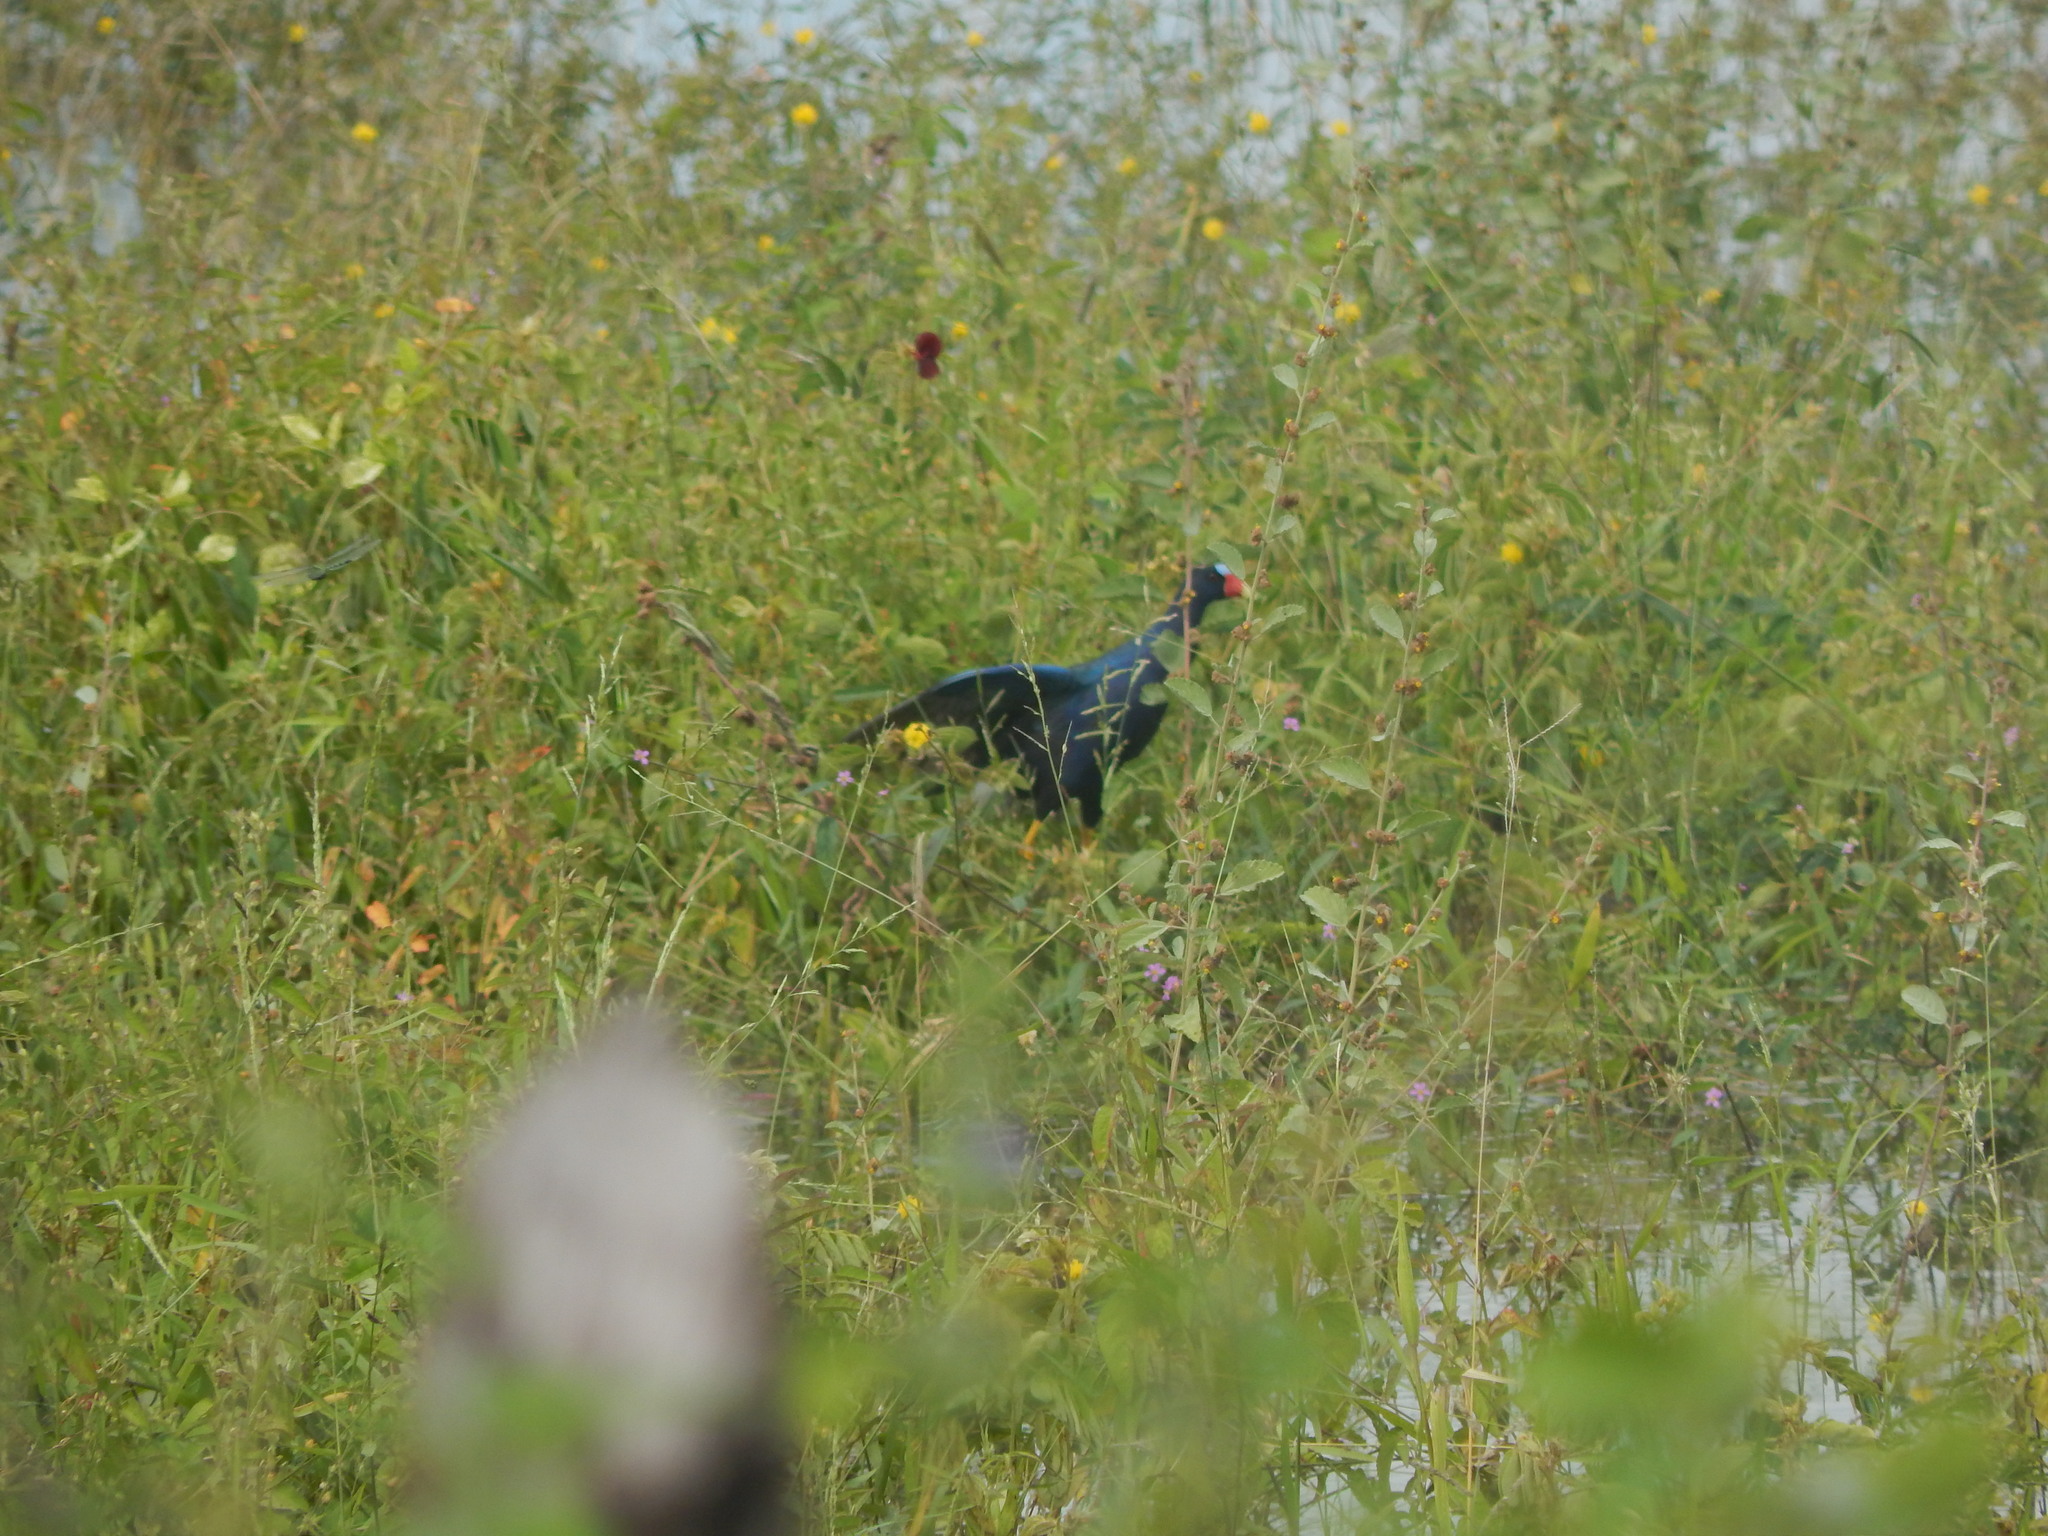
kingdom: Animalia
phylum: Chordata
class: Aves
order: Gruiformes
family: Rallidae
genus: Porphyrio
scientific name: Porphyrio martinica
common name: Purple gallinule
